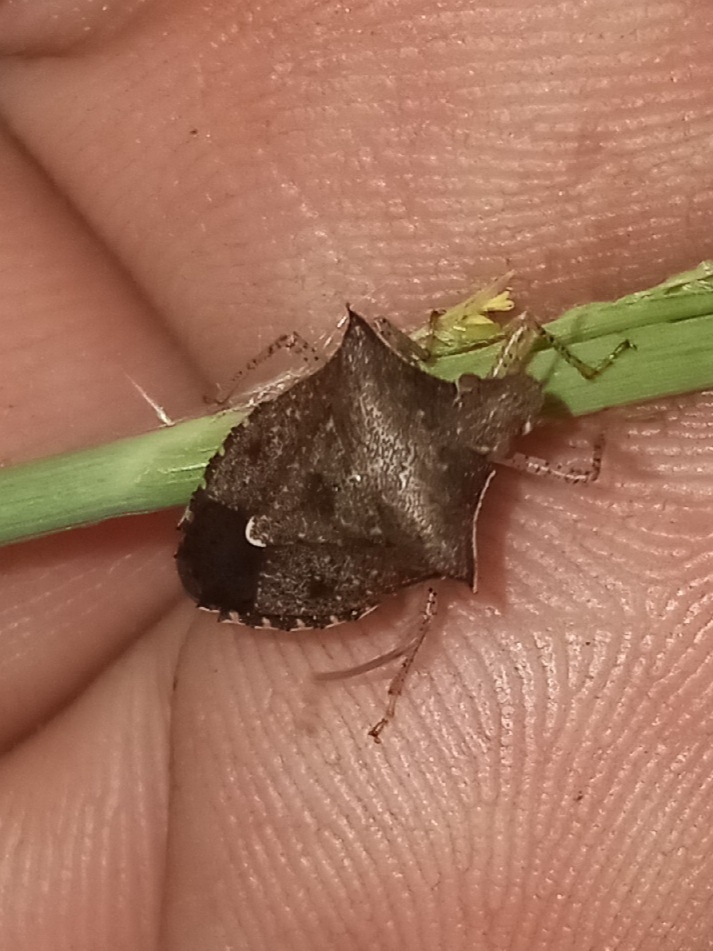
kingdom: Animalia
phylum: Arthropoda
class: Insecta
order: Hemiptera
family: Pentatomidae
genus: Euschistus
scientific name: Euschistus tristigmus
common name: Dusky stink bug
